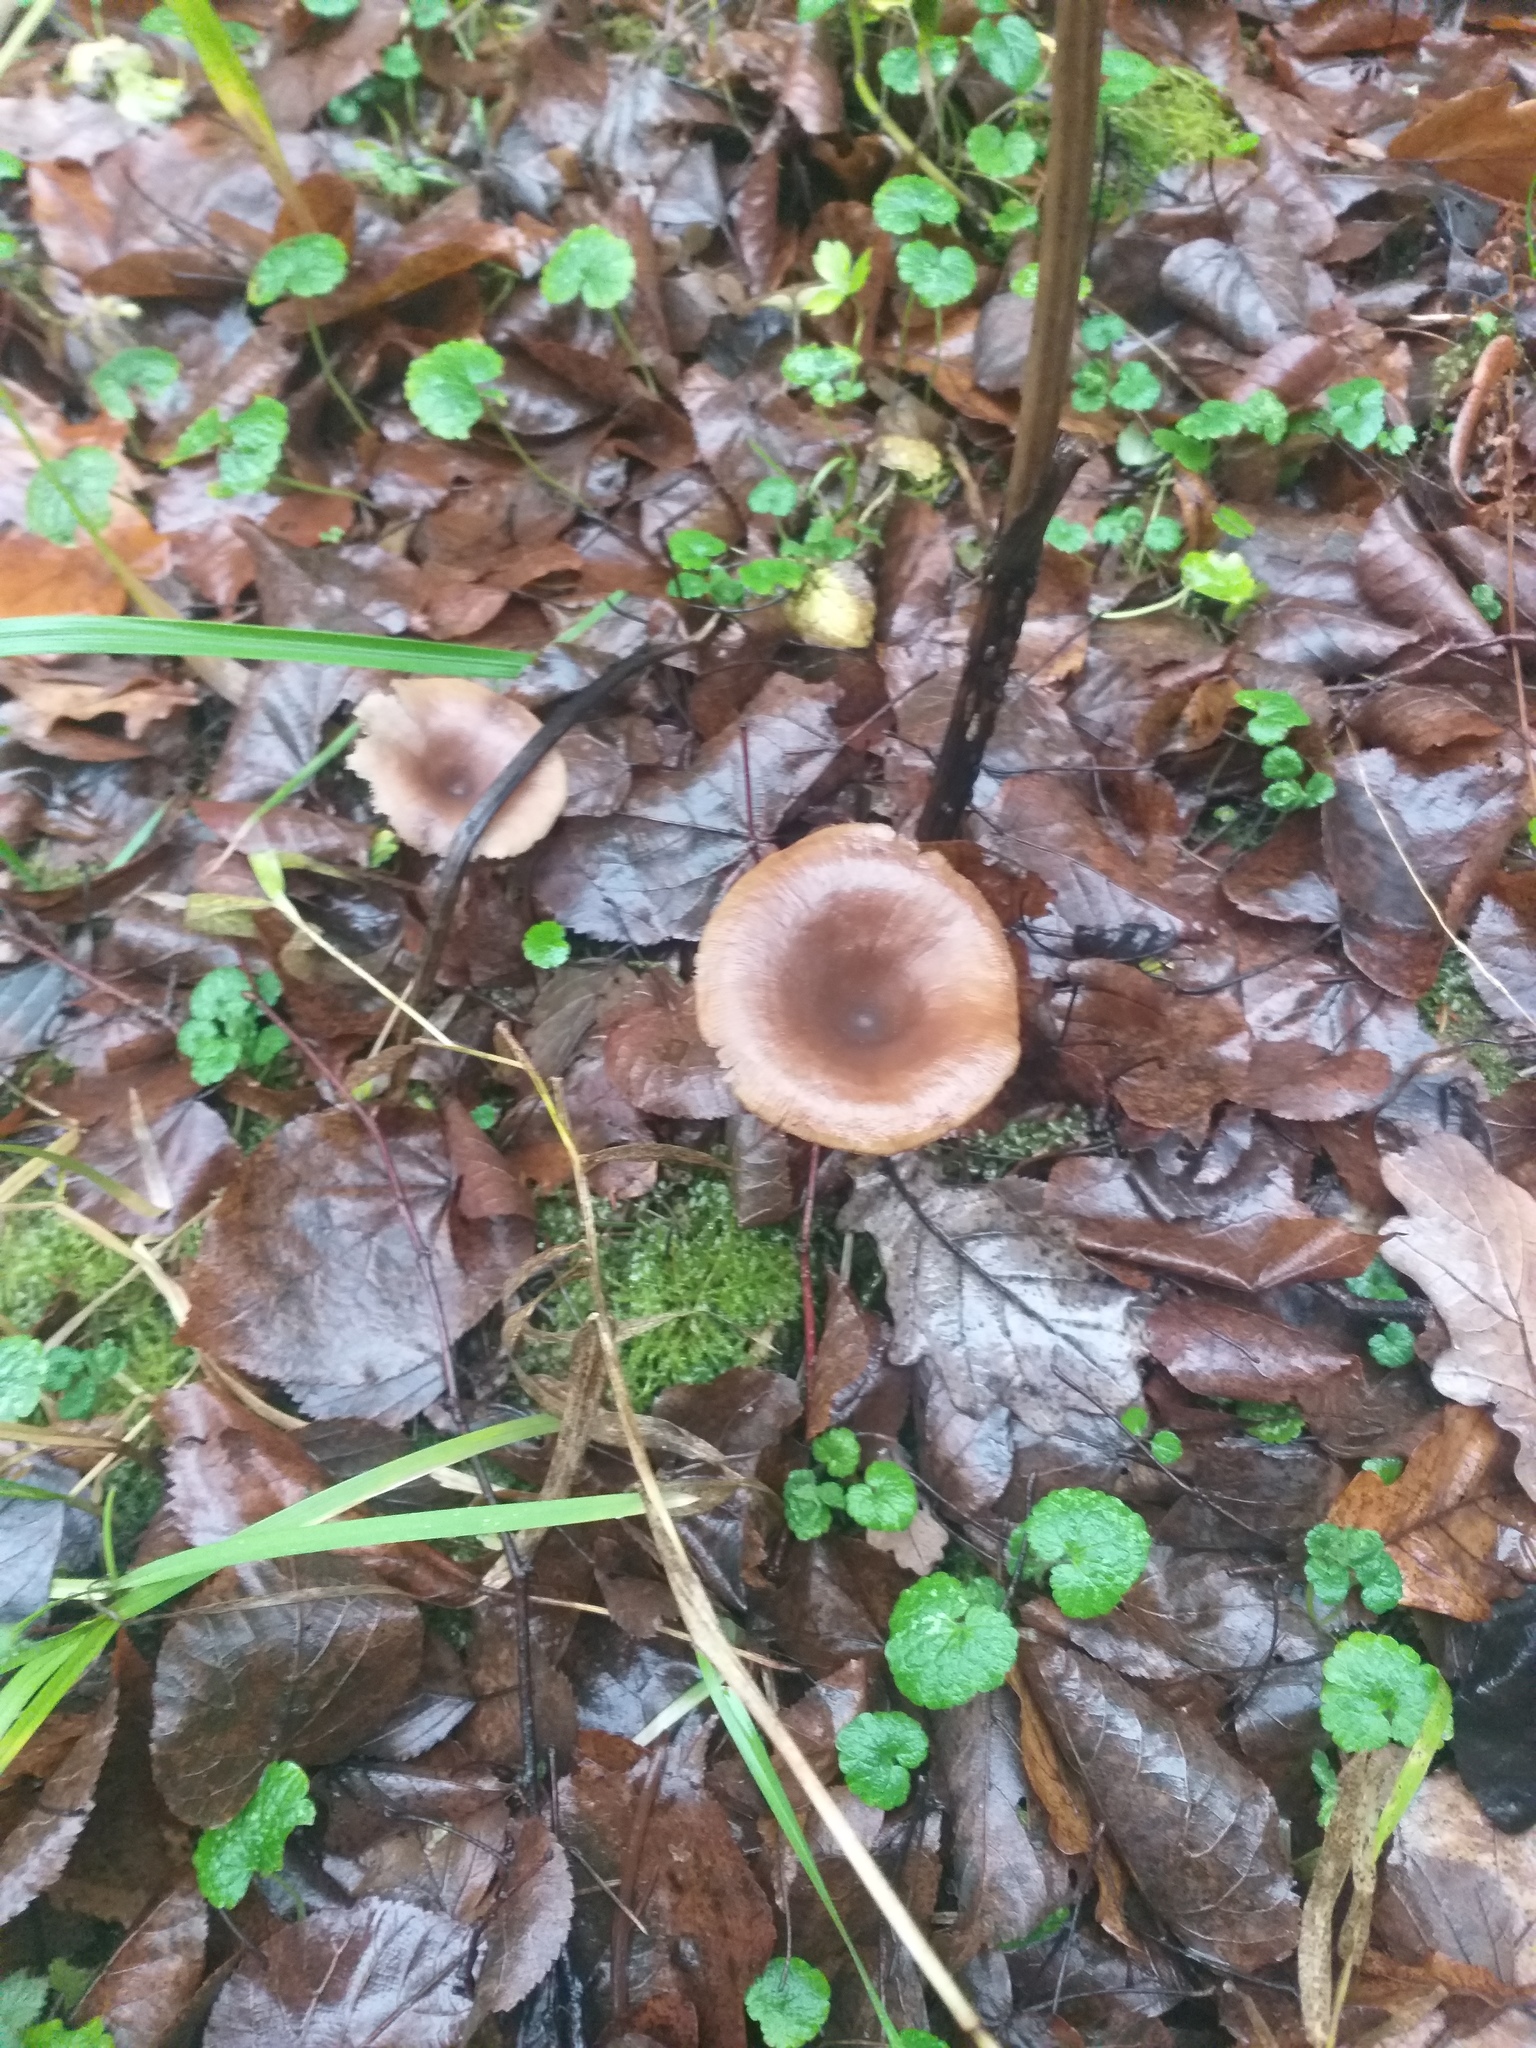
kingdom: Fungi
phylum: Basidiomycota
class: Agaricomycetes
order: Agaricales
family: Pseudoclitocybaceae
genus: Pseudoclitocybe
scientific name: Pseudoclitocybe cyathiformis
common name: Goblet
